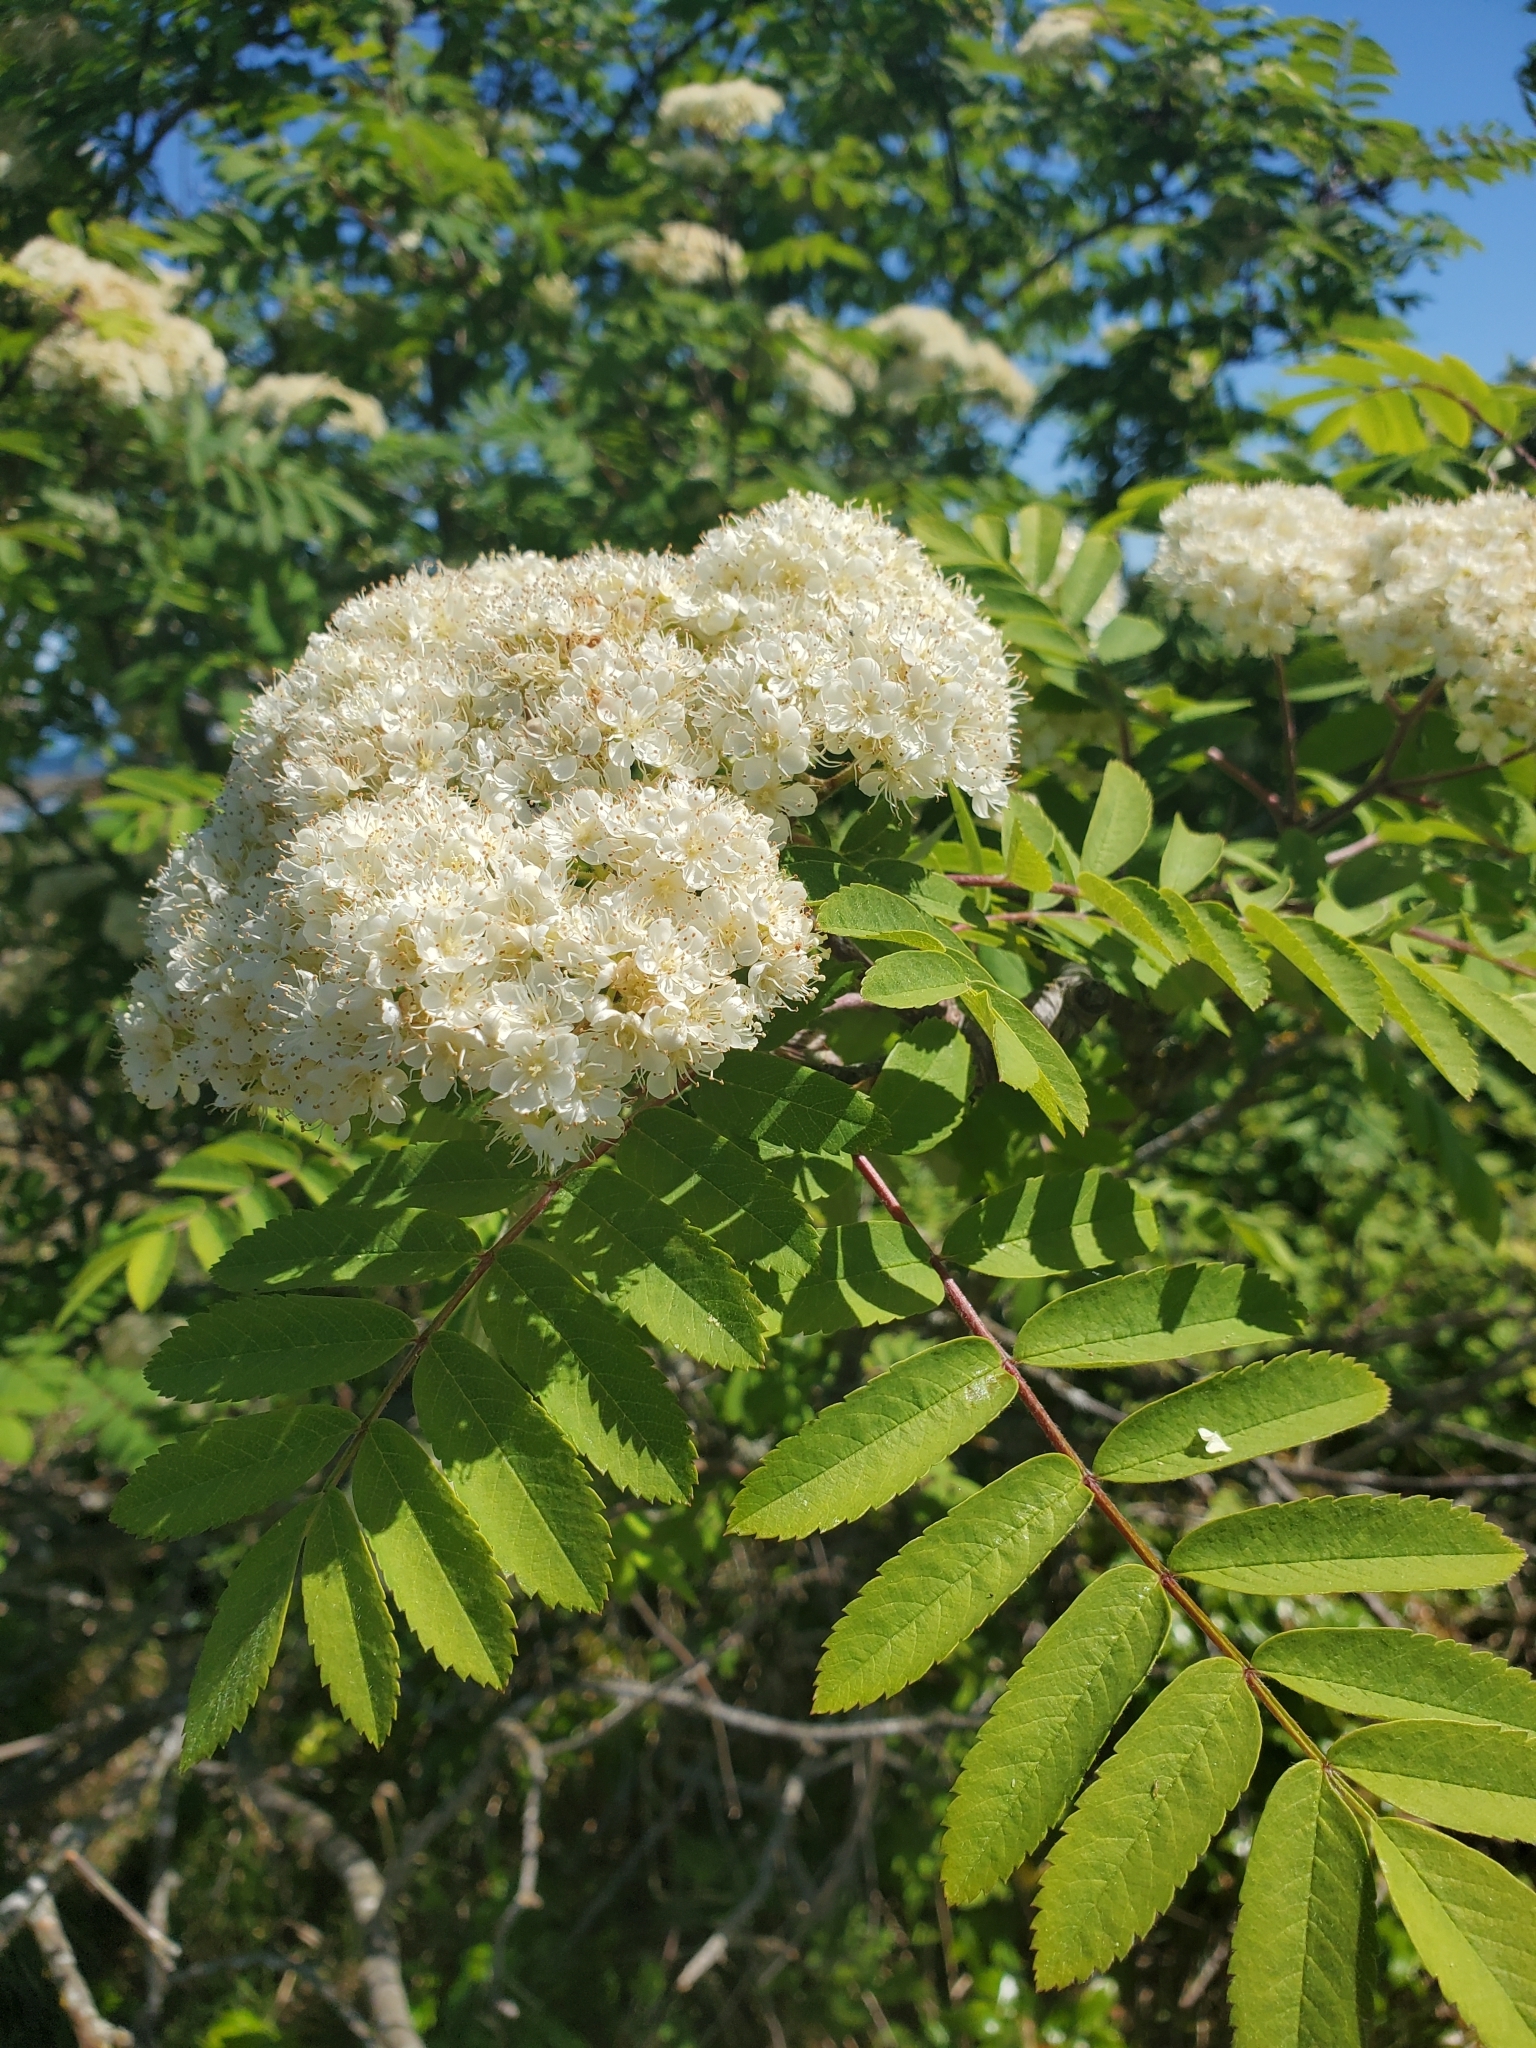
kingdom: Plantae
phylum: Tracheophyta
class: Magnoliopsida
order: Rosales
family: Rosaceae
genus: Sorbus
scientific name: Sorbus aucuparia
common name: Rowan
